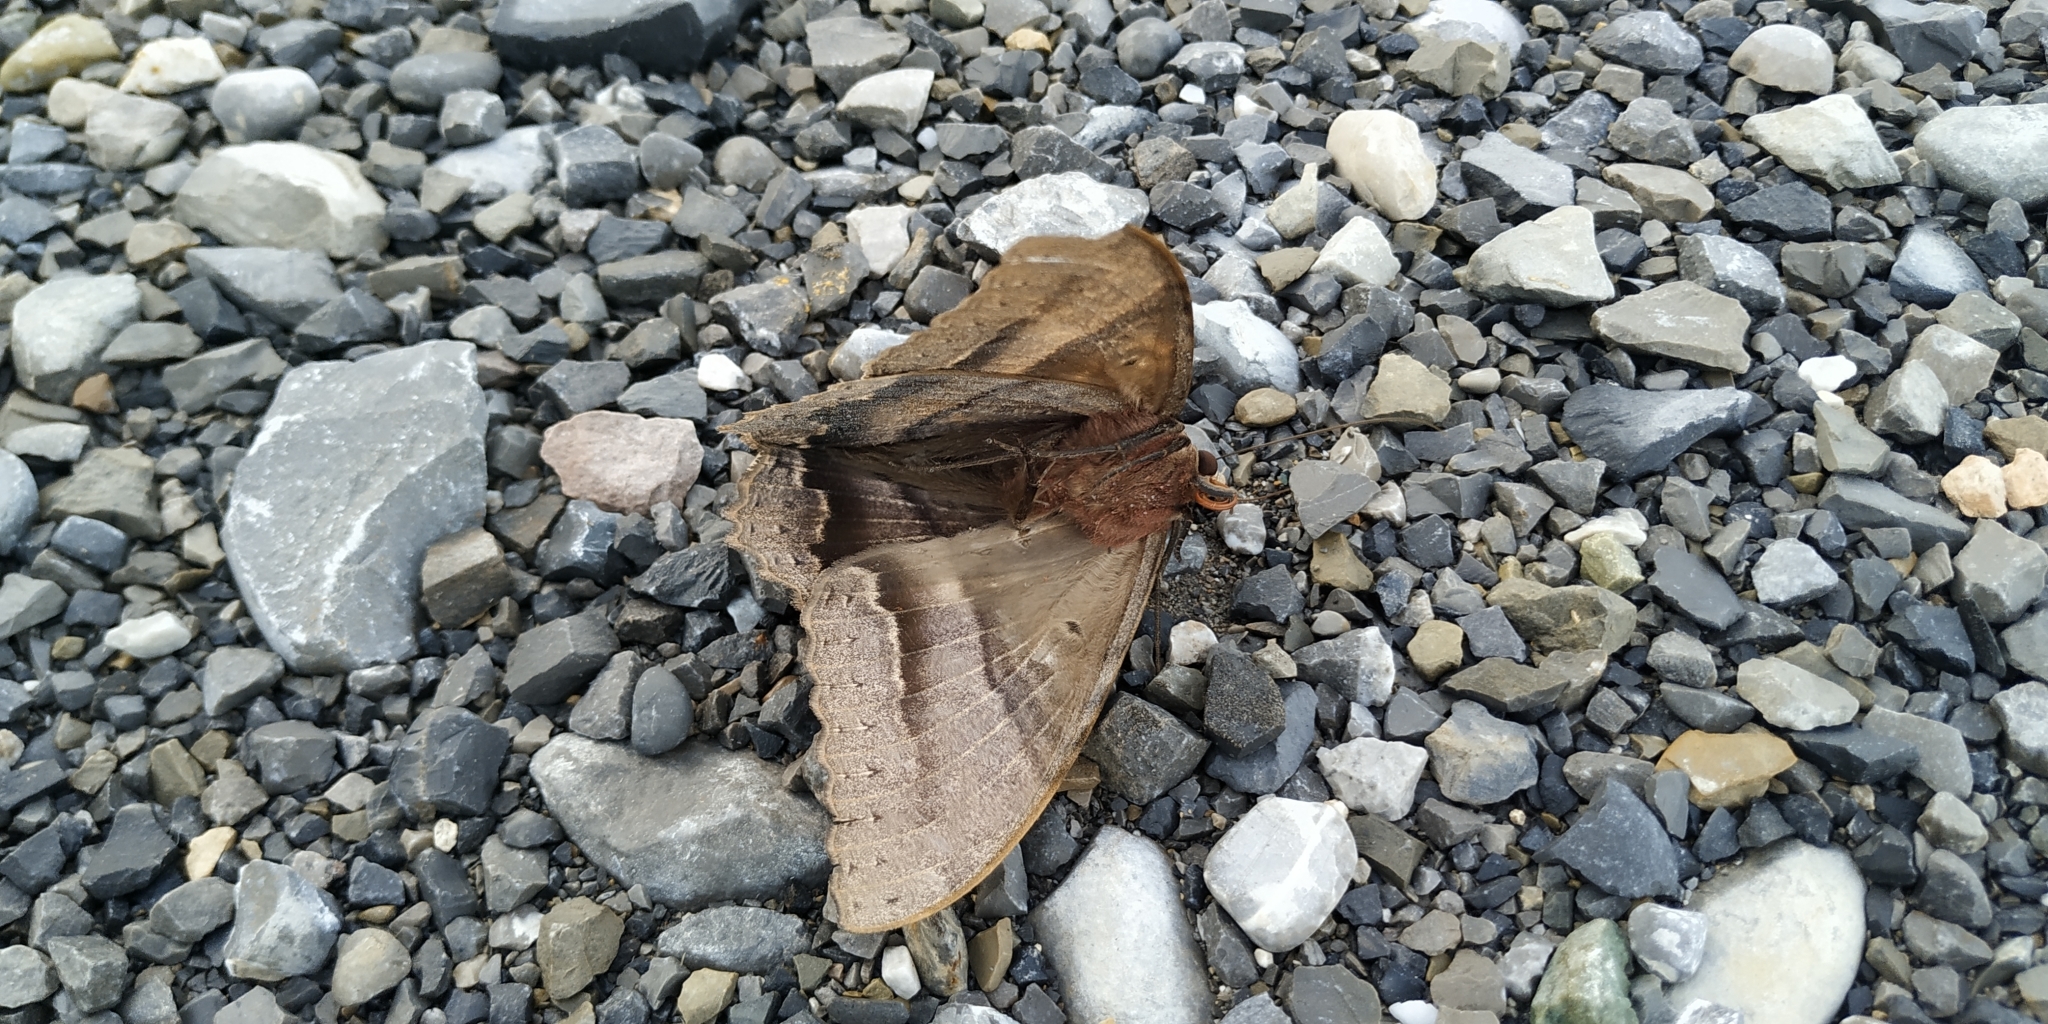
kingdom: Animalia
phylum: Arthropoda
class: Insecta
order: Lepidoptera
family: Erebidae
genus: Ascalapha
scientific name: Ascalapha odorata
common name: Black witch
